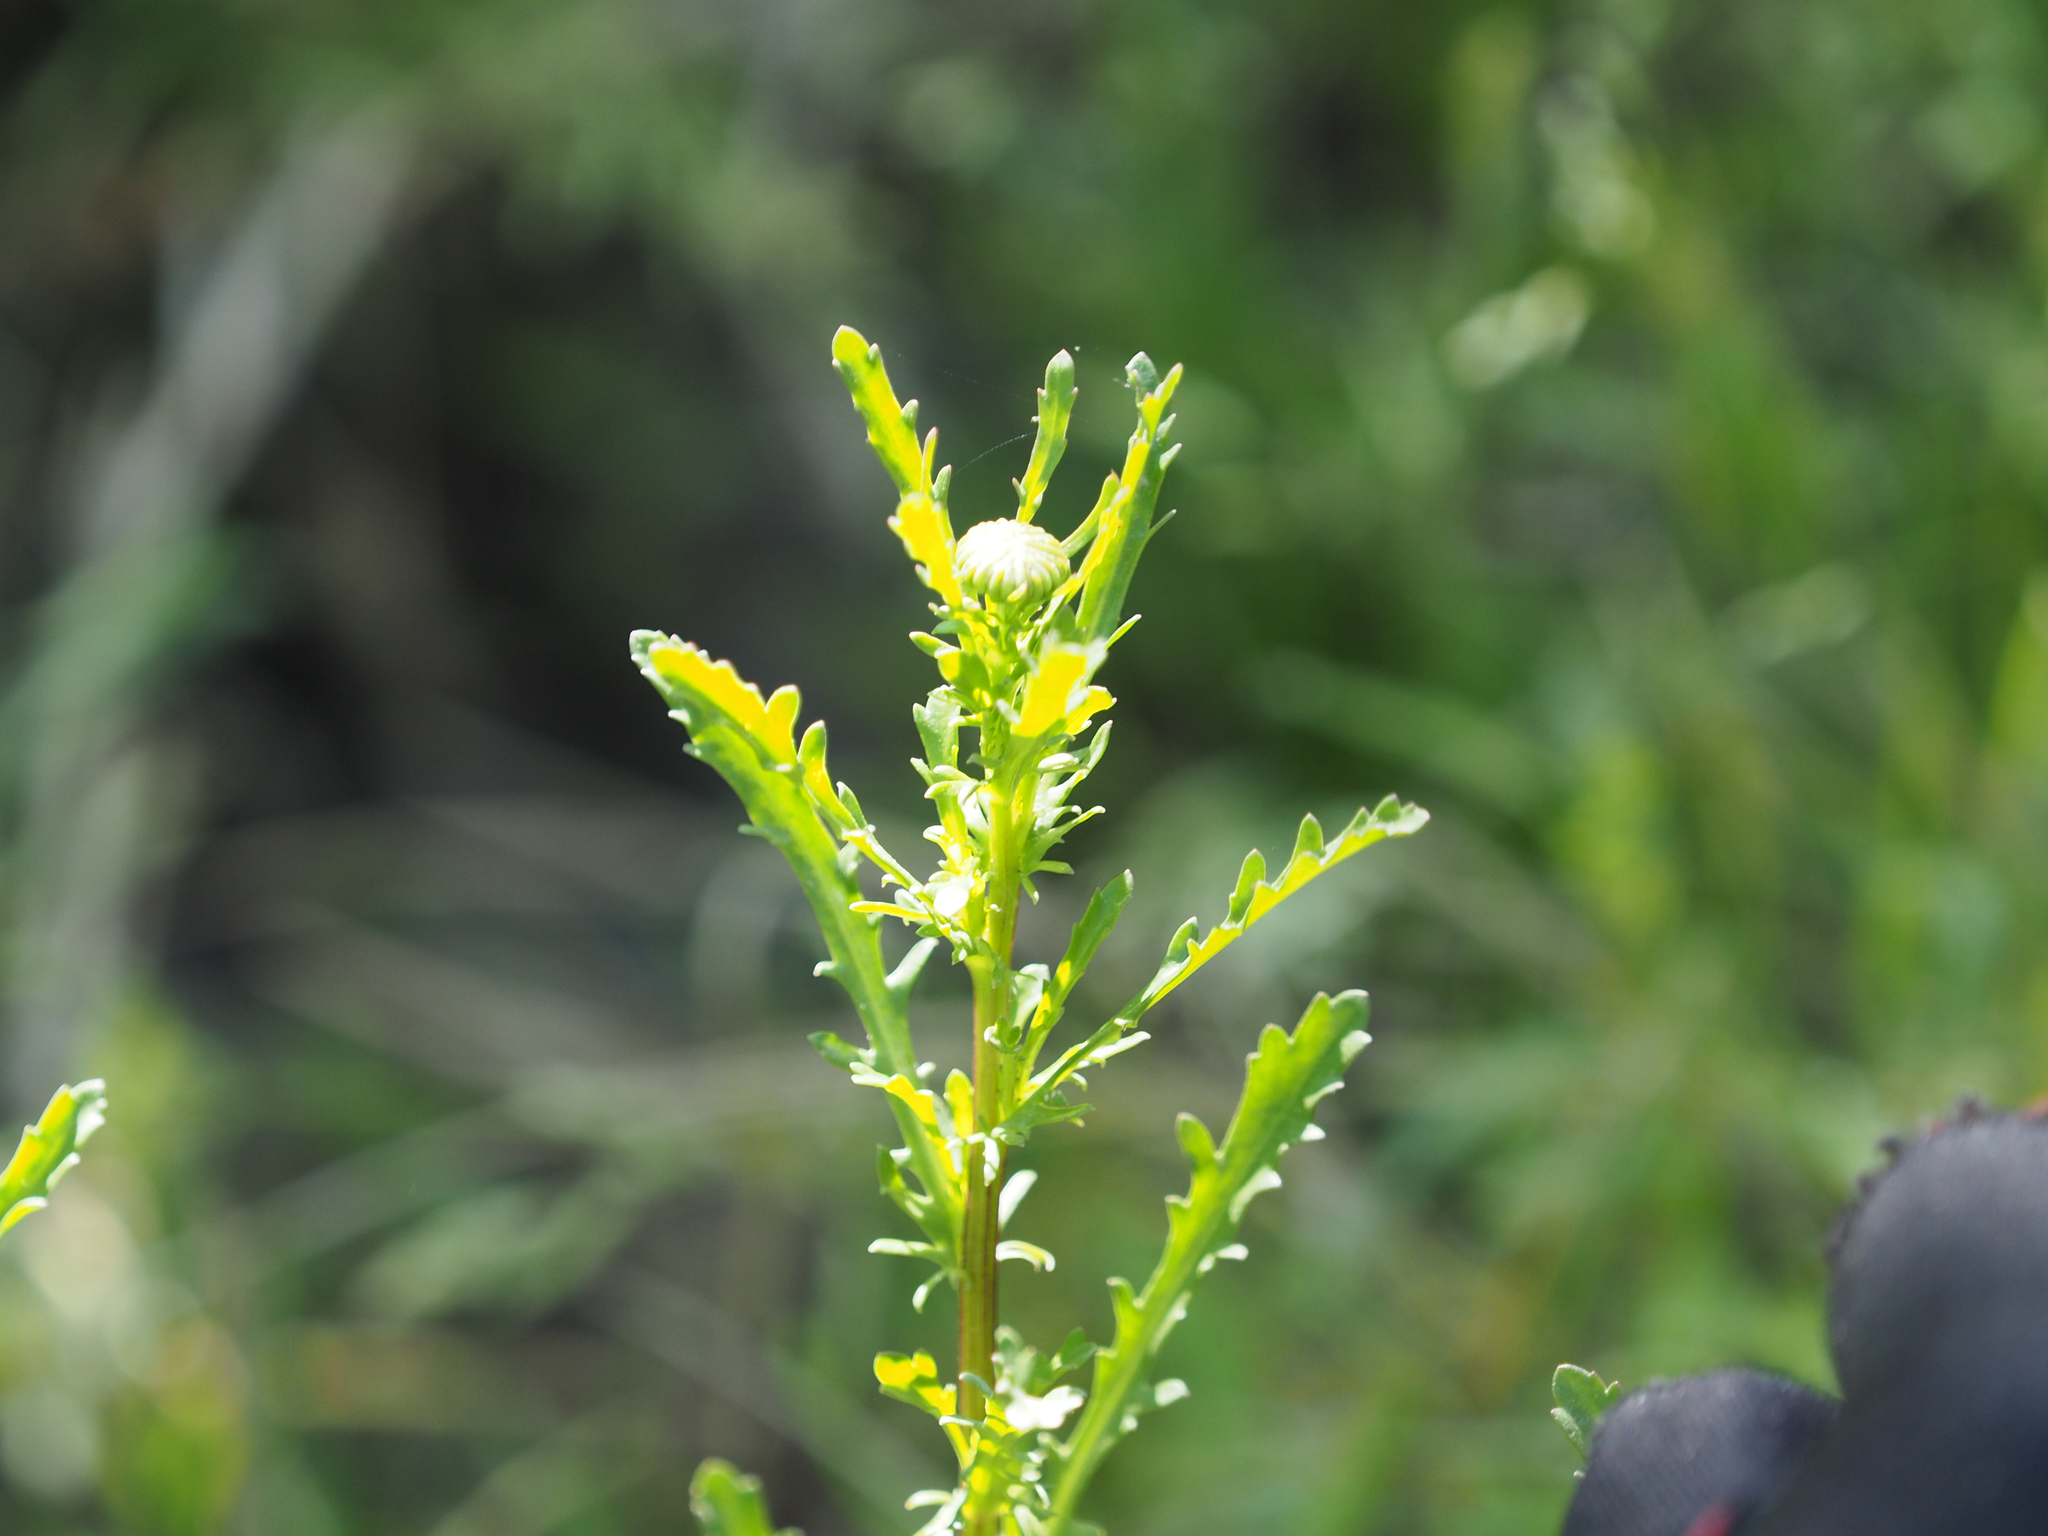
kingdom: Plantae
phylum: Tracheophyta
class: Magnoliopsida
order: Asterales
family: Asteraceae
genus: Leucanthemum
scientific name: Leucanthemum vulgare
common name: Oxeye daisy
